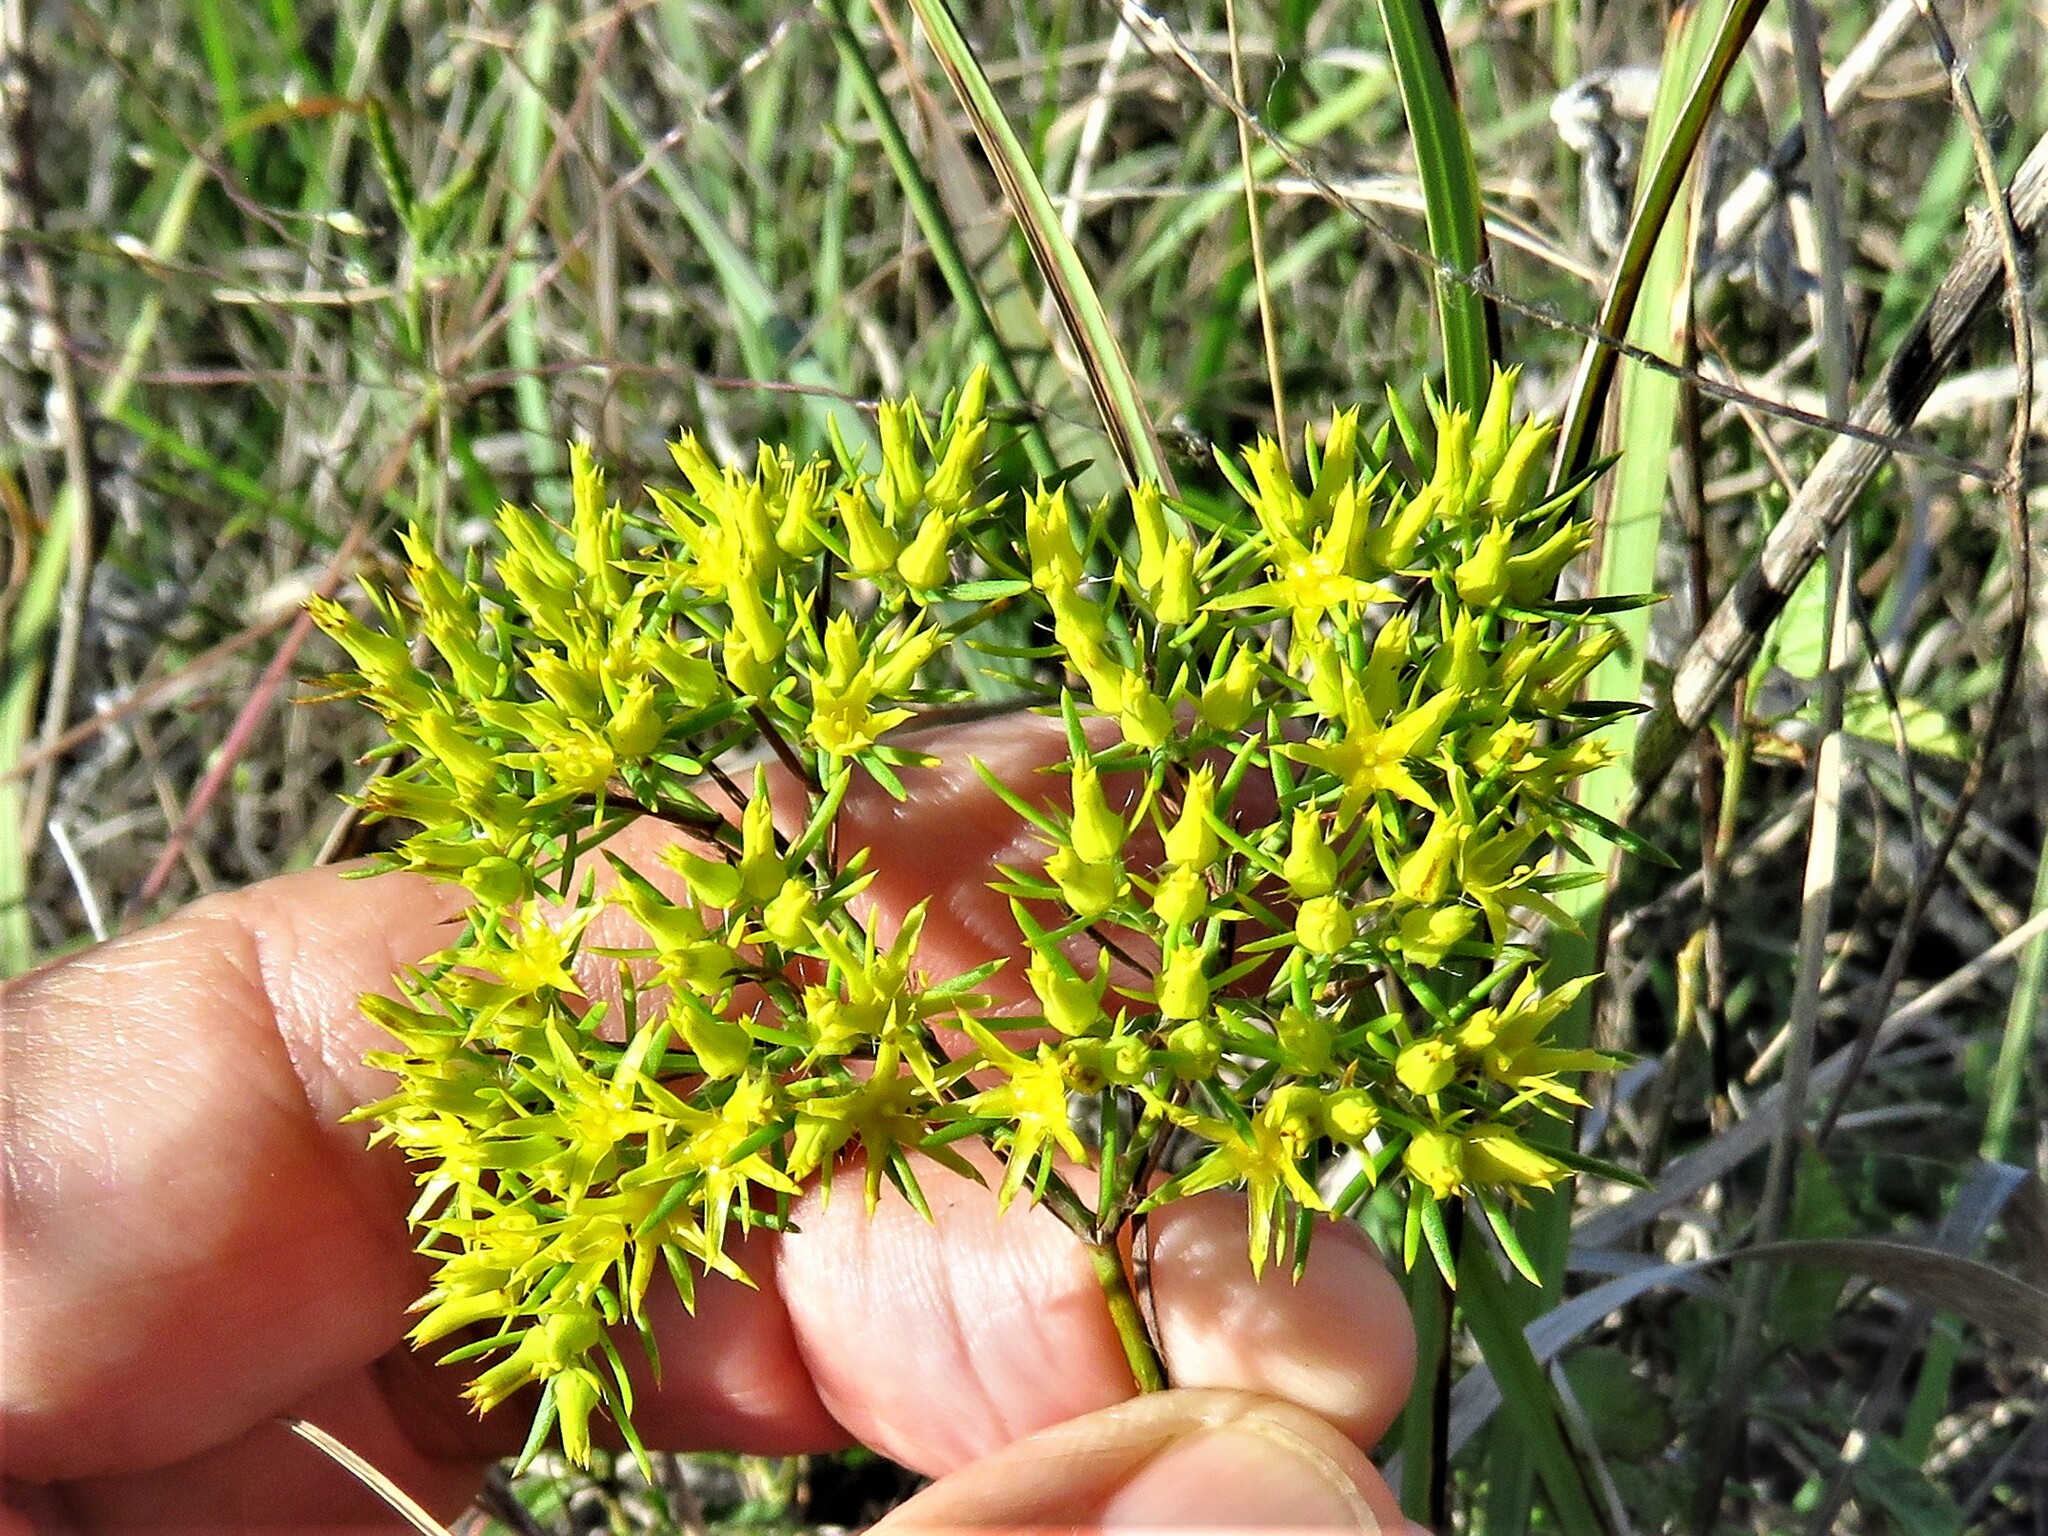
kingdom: Plantae
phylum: Tracheophyta
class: Magnoliopsida
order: Caryophyllales
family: Caryophyllaceae
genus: Paronychia
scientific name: Paronychia virginica
